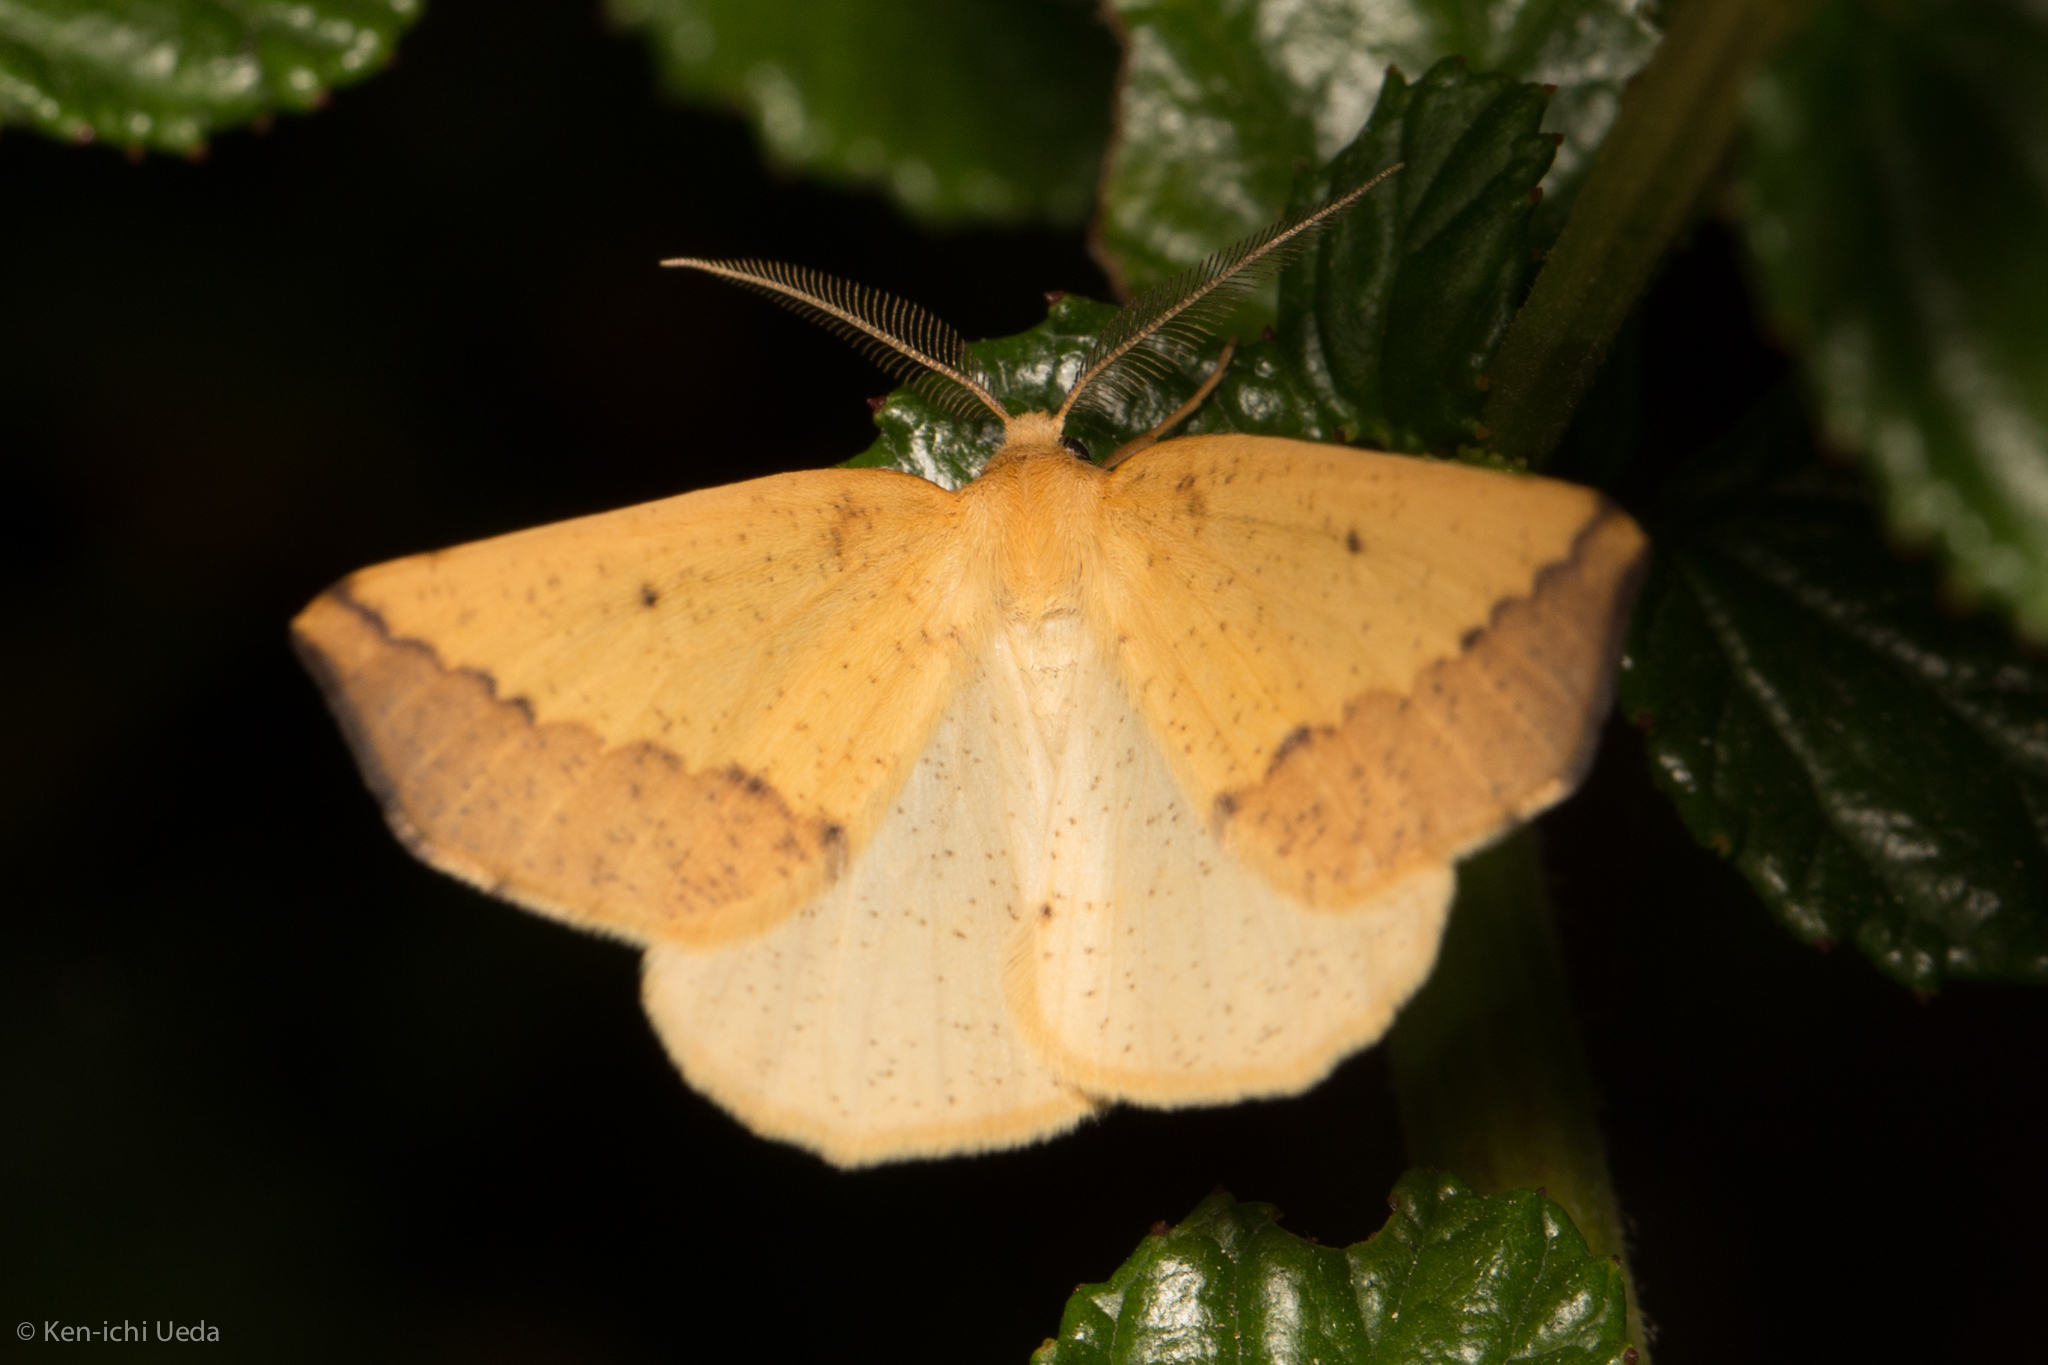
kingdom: Animalia
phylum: Arthropoda
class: Insecta
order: Lepidoptera
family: Geometridae
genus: Neoterpes
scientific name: Neoterpes edwardsata
